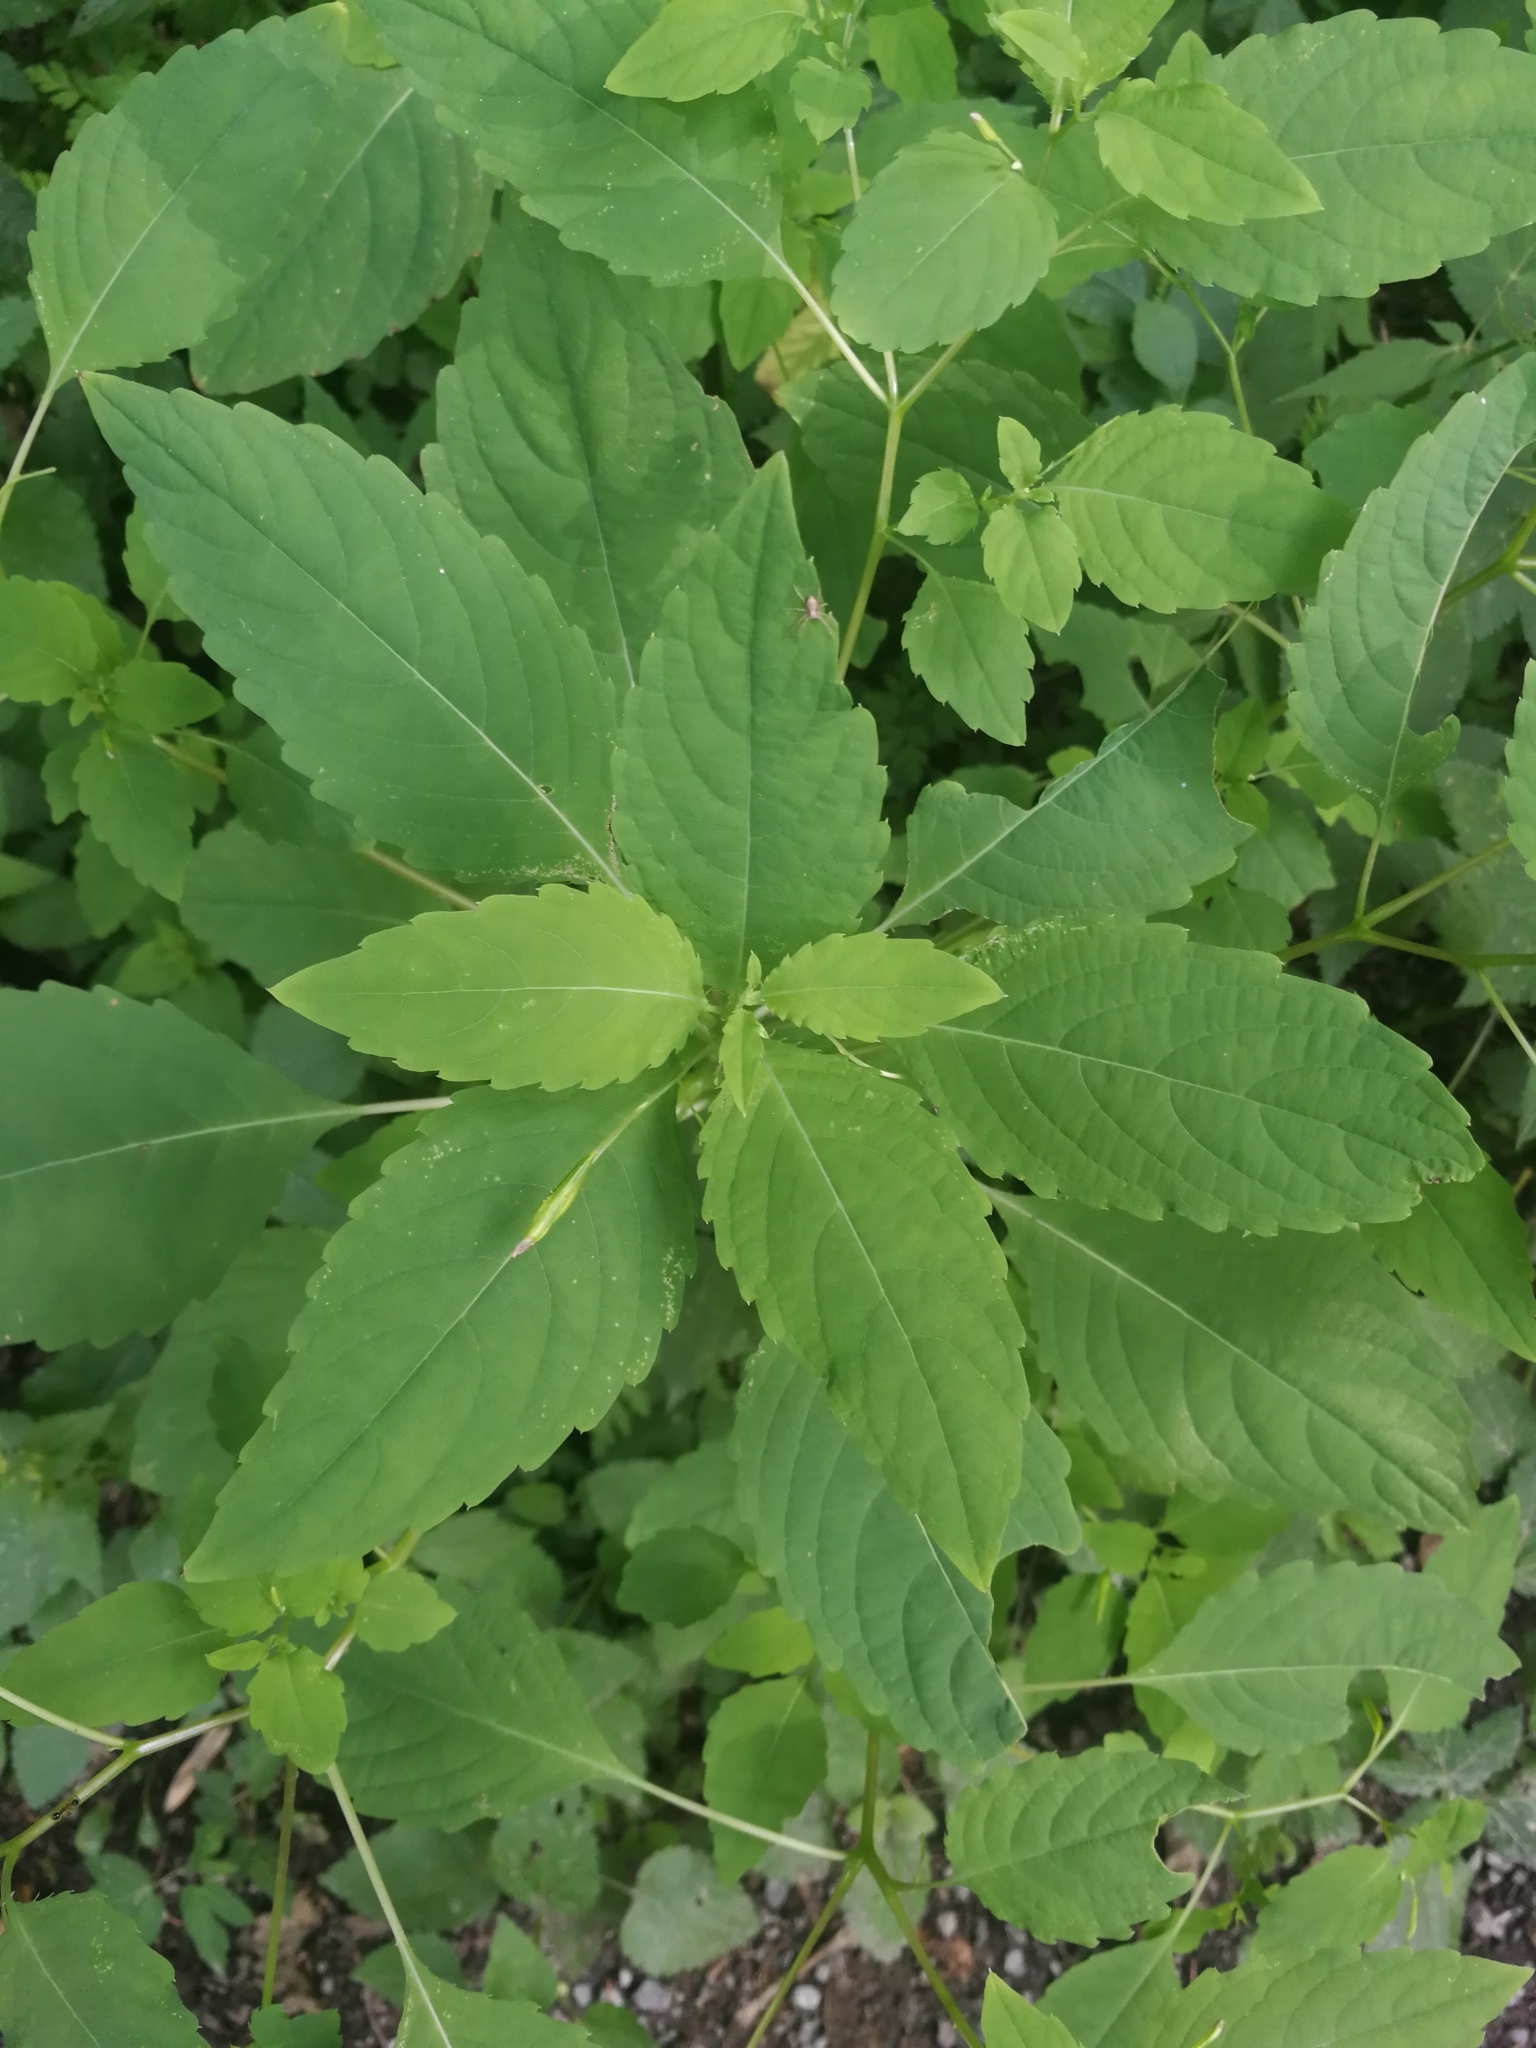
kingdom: Plantae
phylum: Tracheophyta
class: Magnoliopsida
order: Ericales
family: Balsaminaceae
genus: Impatiens
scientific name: Impatiens noli-tangere
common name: Touch-me-not balsam
